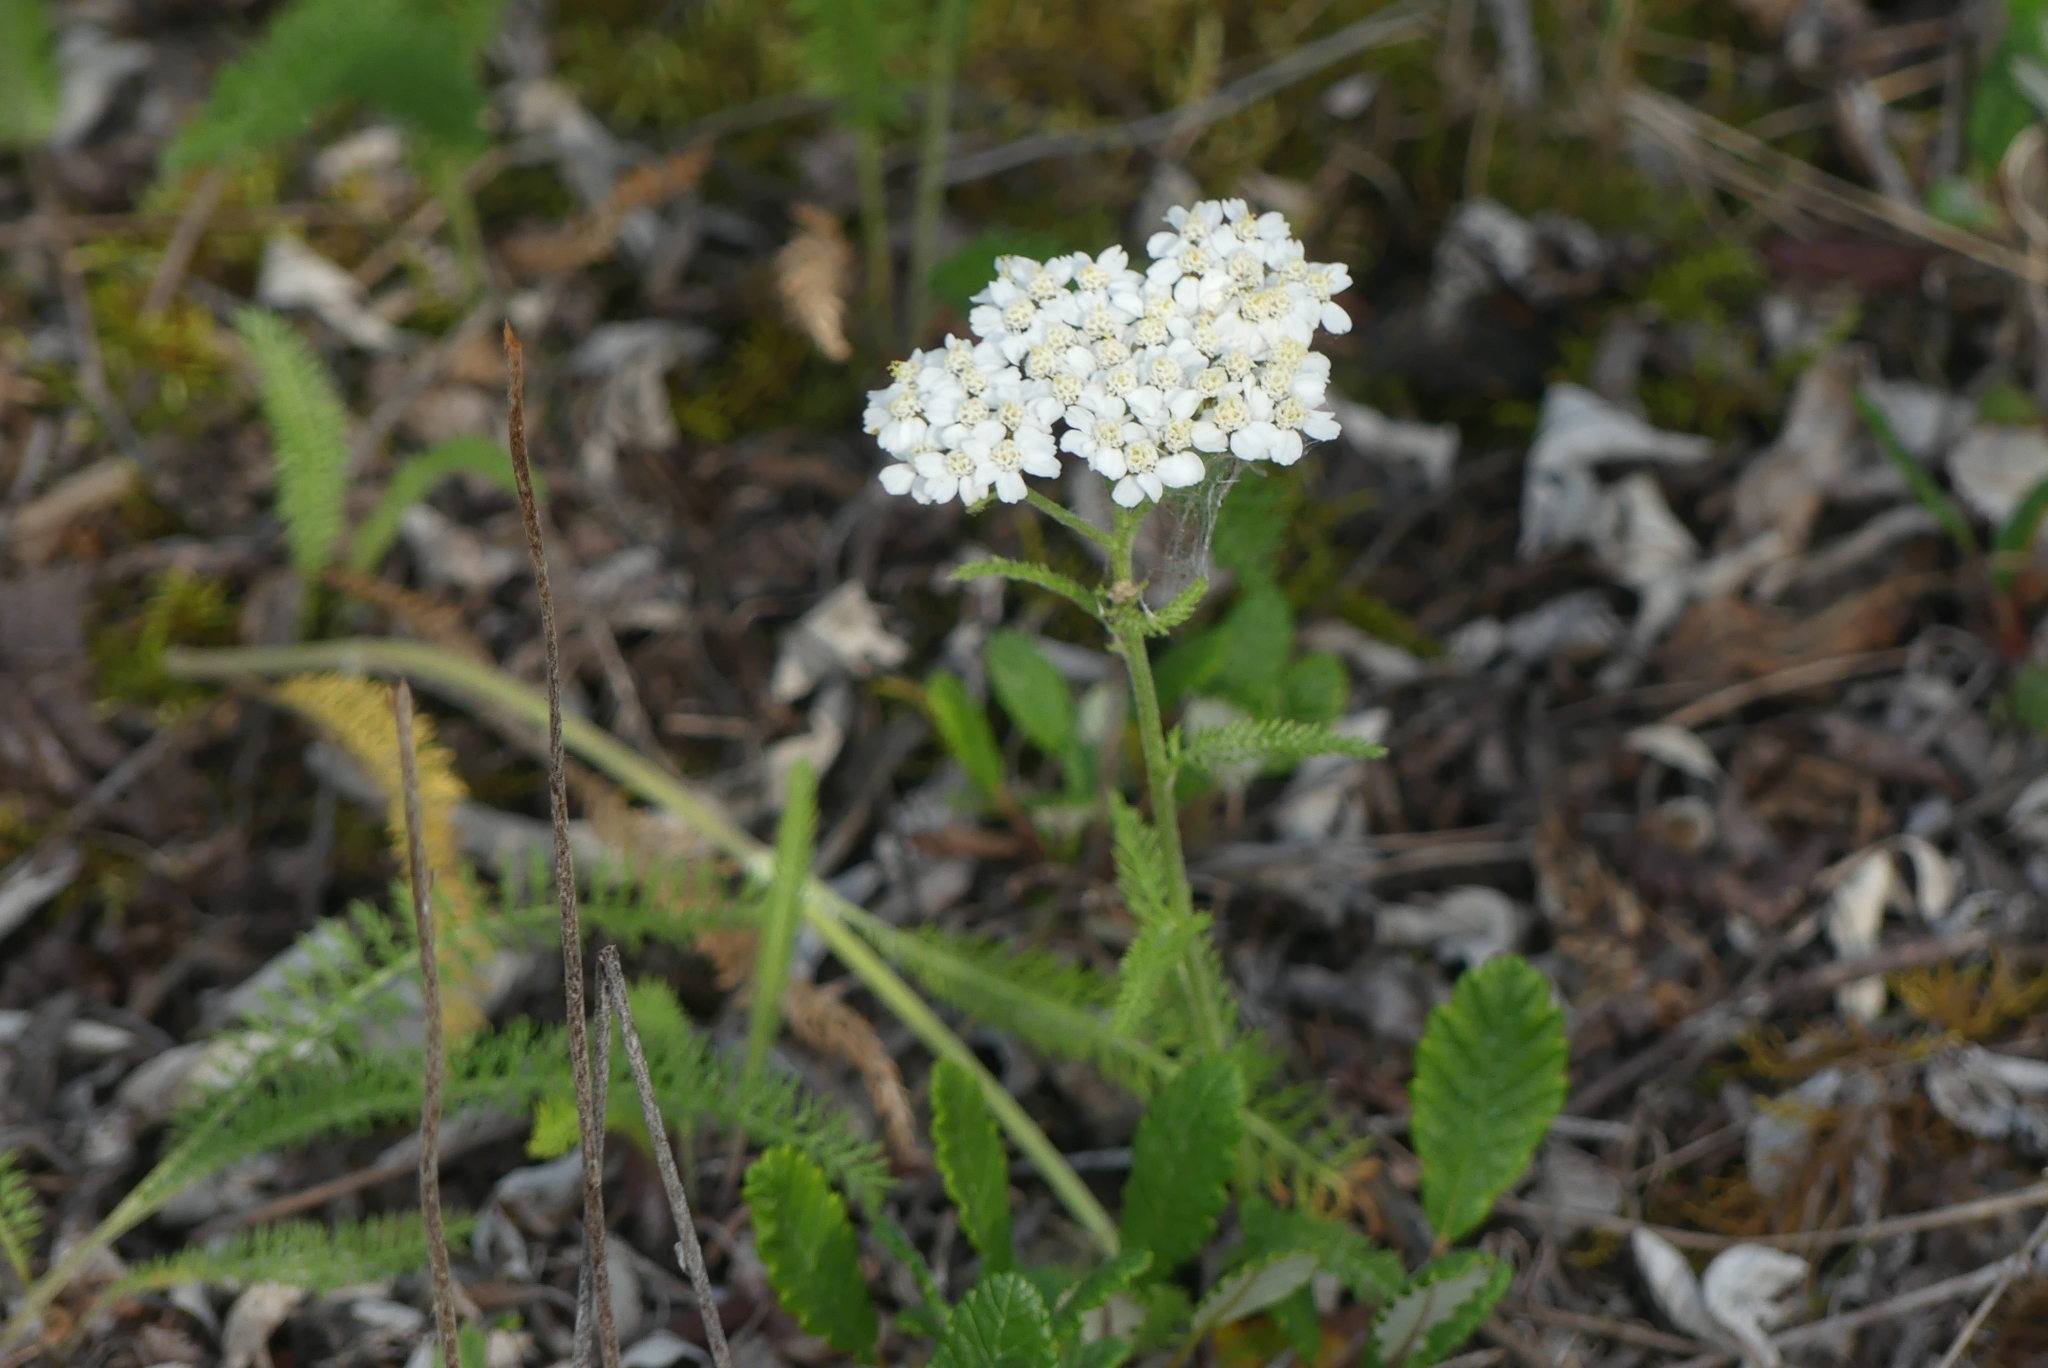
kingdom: Plantae
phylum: Tracheophyta
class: Magnoliopsida
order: Asterales
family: Asteraceae
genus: Achillea
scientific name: Achillea millefolium
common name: Yarrow
